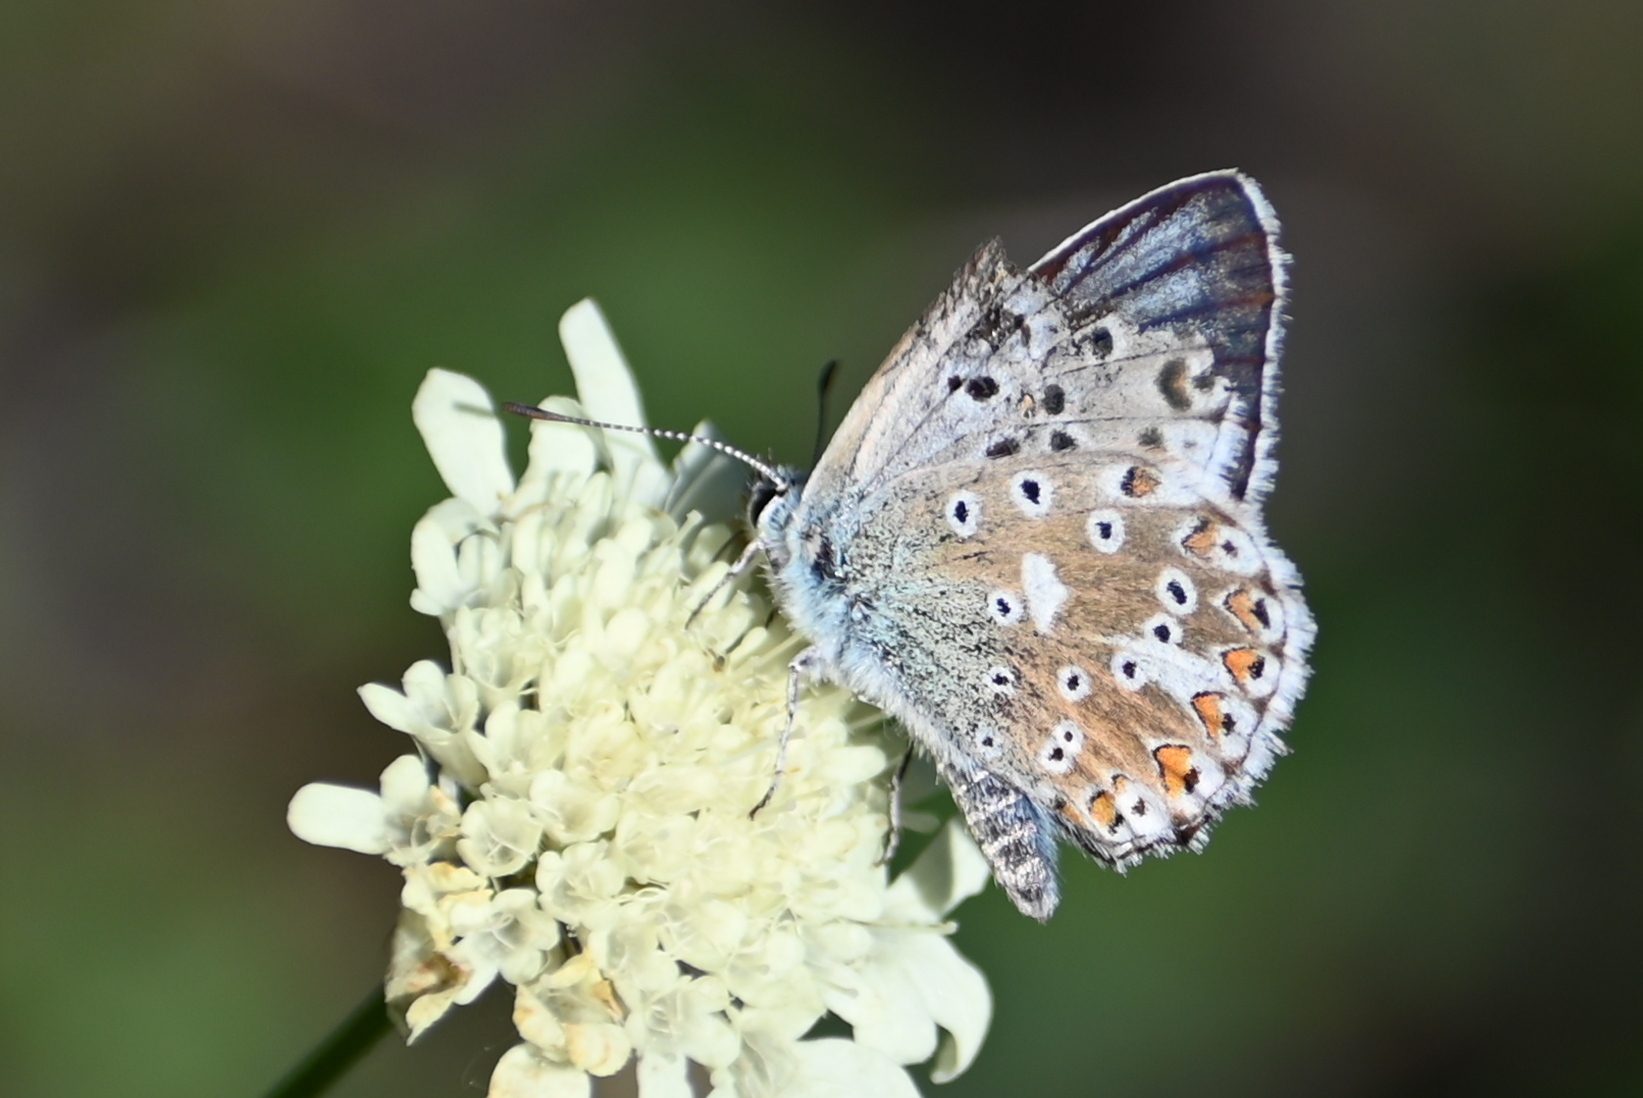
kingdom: Animalia
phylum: Arthropoda
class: Insecta
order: Lepidoptera
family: Lycaenidae
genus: Lysandra
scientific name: Lysandra coridon
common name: Chalkhill blue
